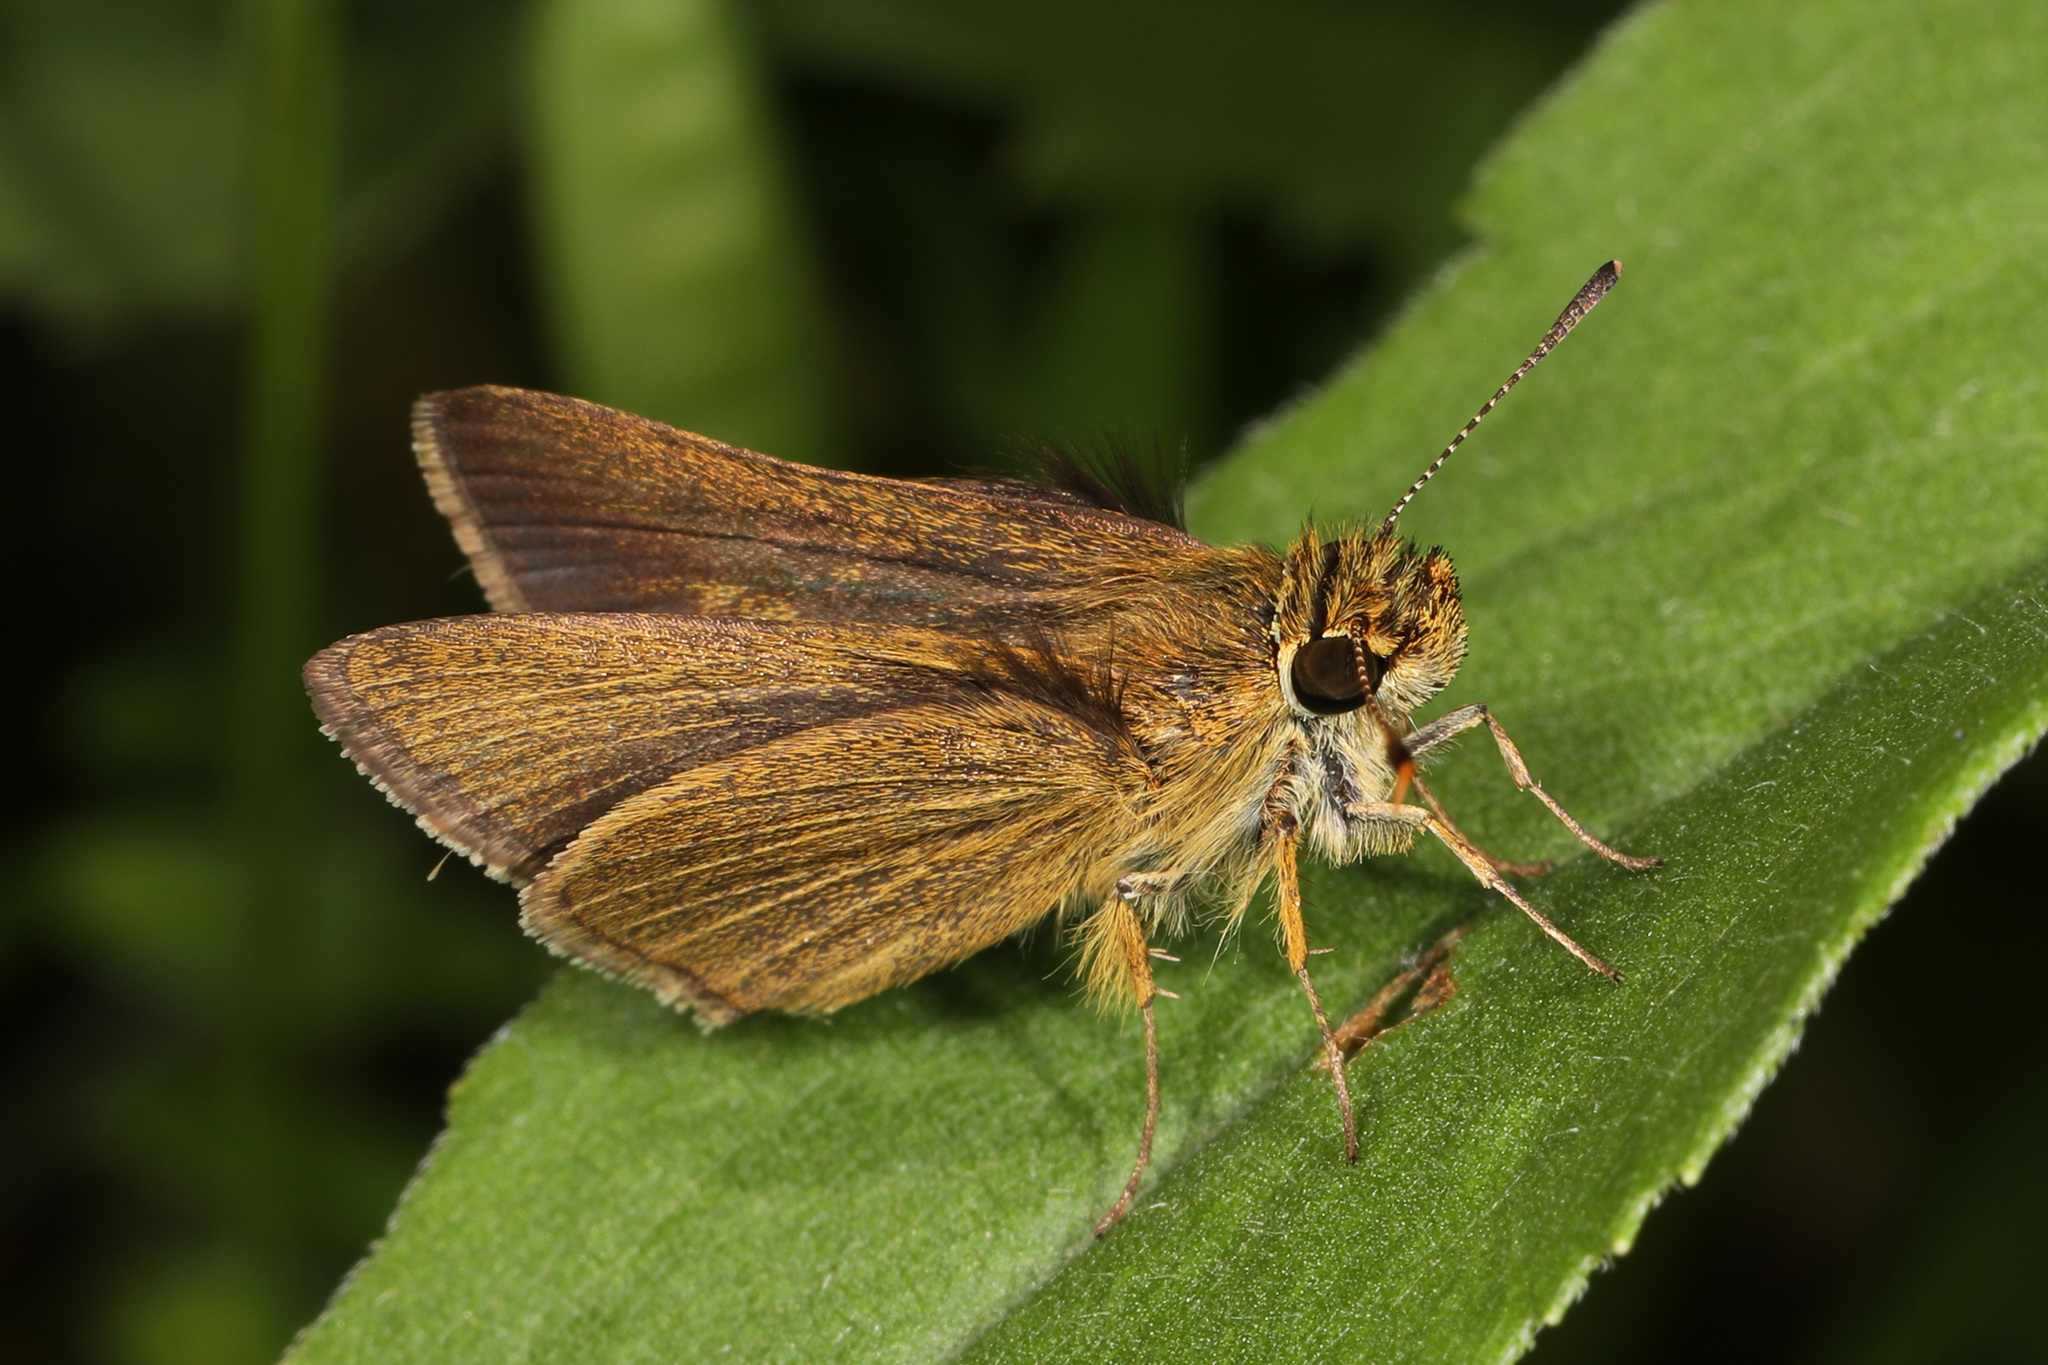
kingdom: Animalia
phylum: Arthropoda
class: Insecta
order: Lepidoptera
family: Hesperiidae
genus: Nastra
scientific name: Nastra lherminier
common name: Swarthy skipper
